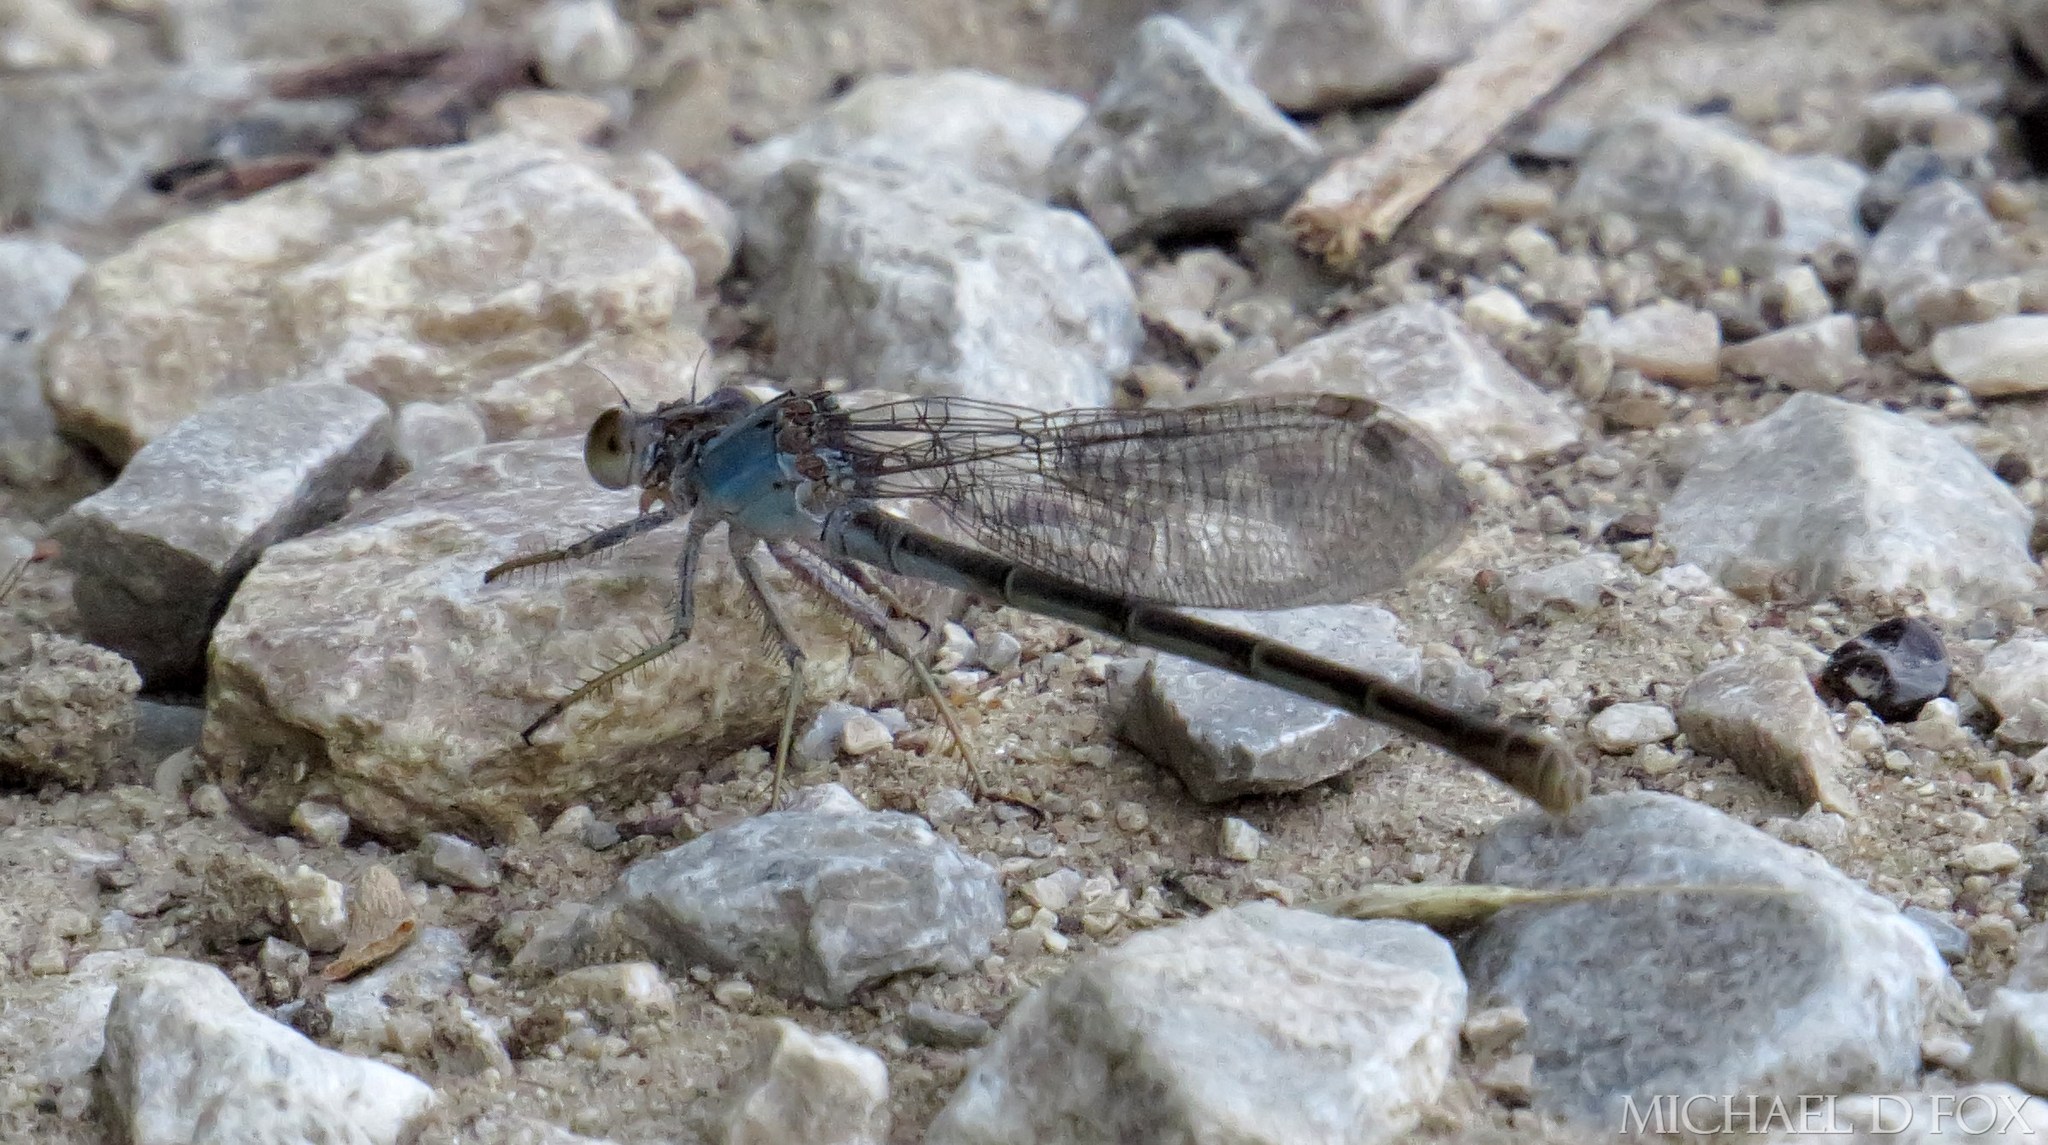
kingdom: Animalia
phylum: Arthropoda
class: Insecta
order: Odonata
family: Coenagrionidae
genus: Argia
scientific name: Argia moesta
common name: Powdered dancer
